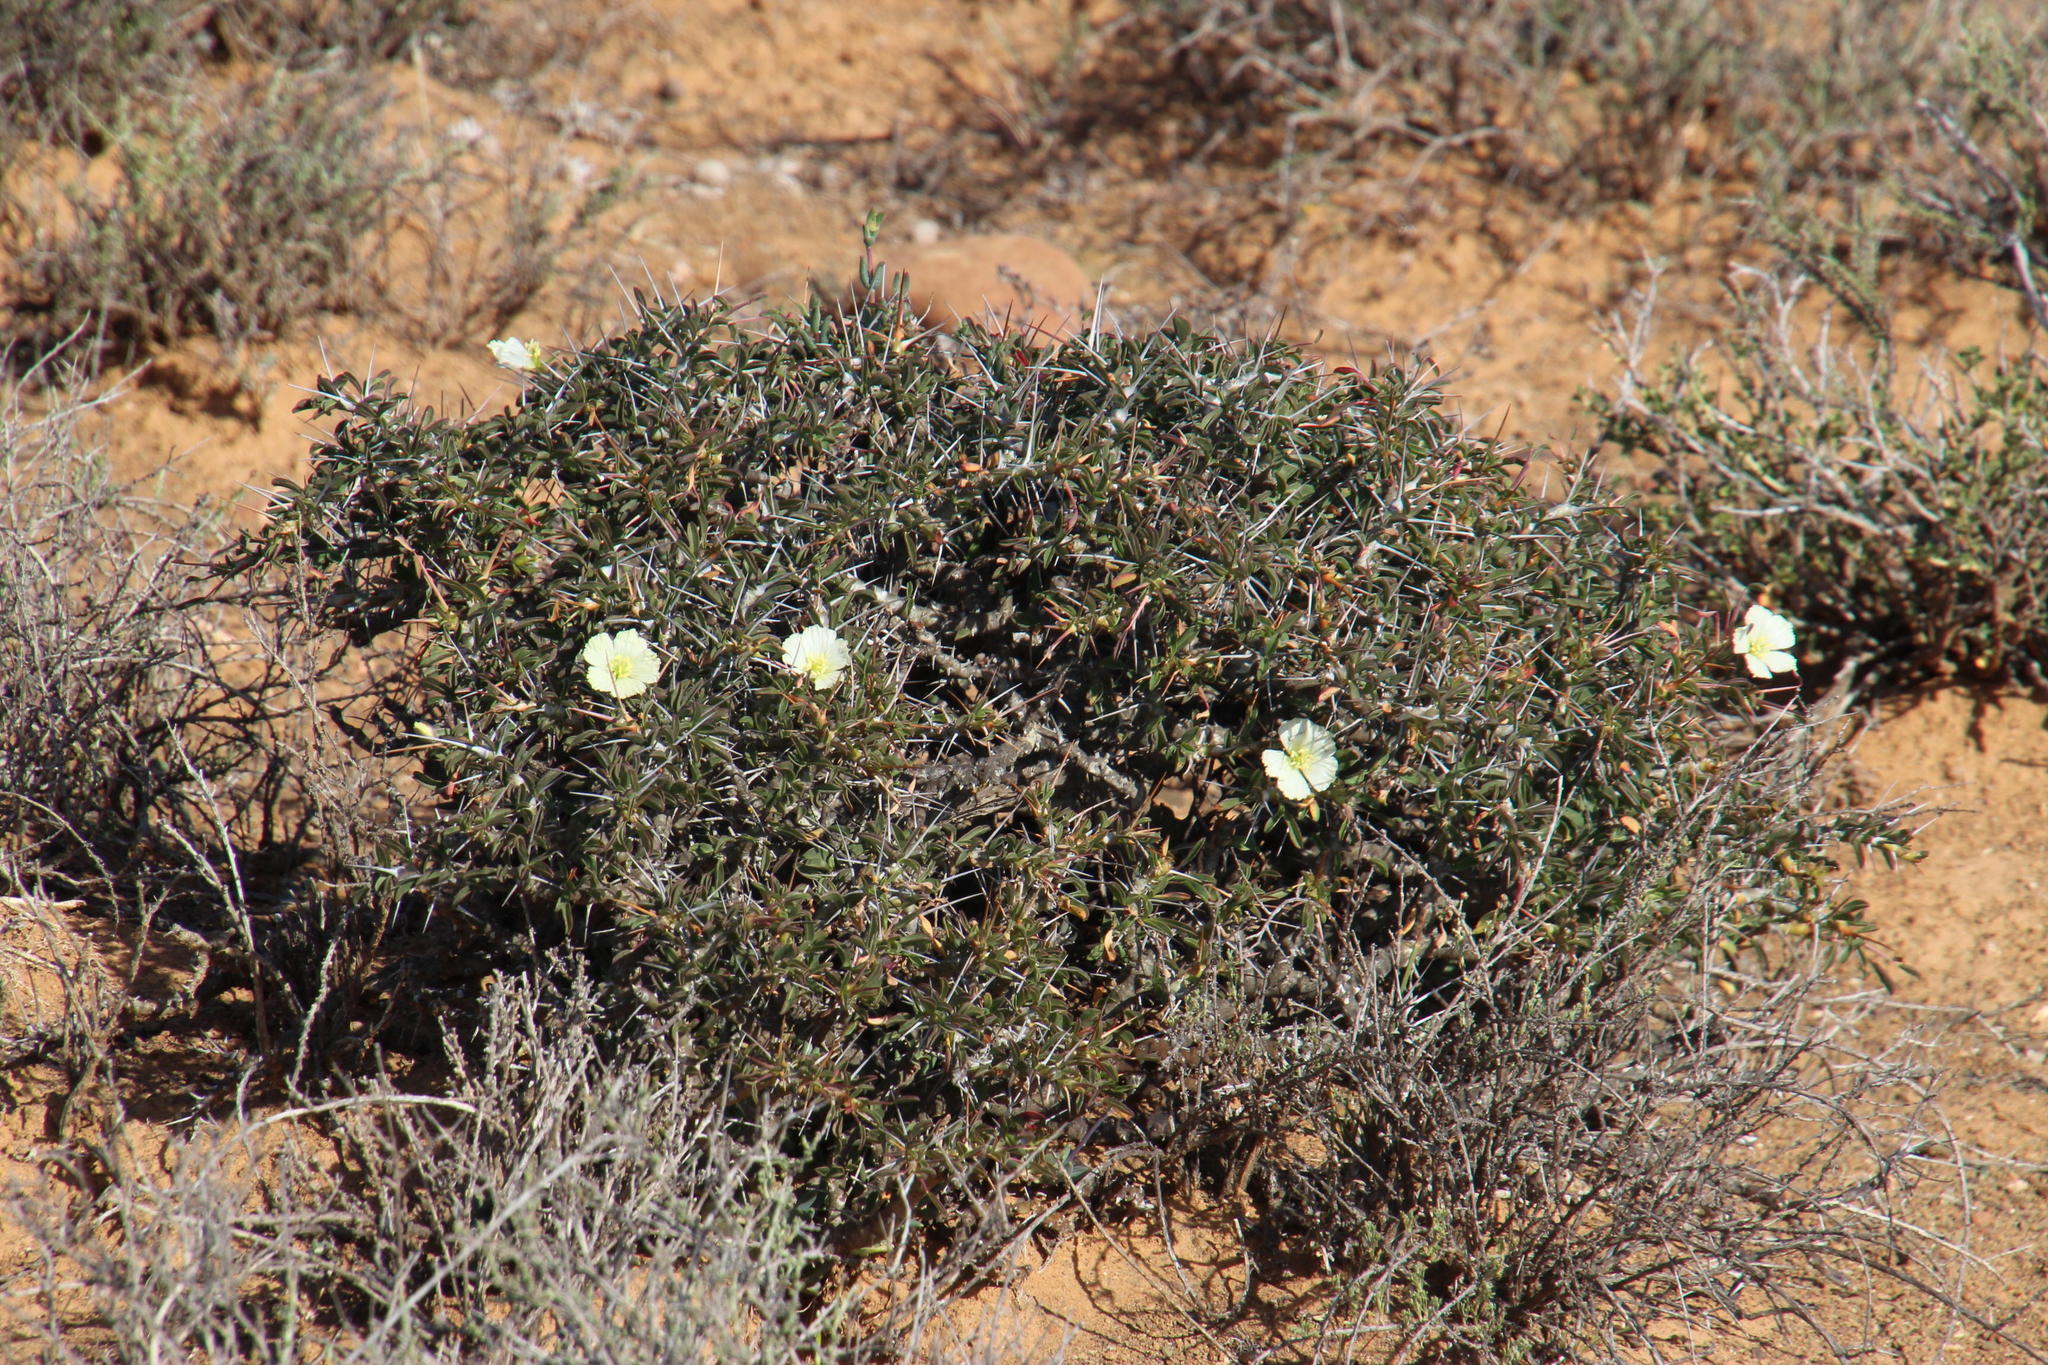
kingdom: Plantae
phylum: Tracheophyta
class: Magnoliopsida
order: Geraniales
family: Geraniaceae
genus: Monsonia
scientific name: Monsonia camdeboensis
